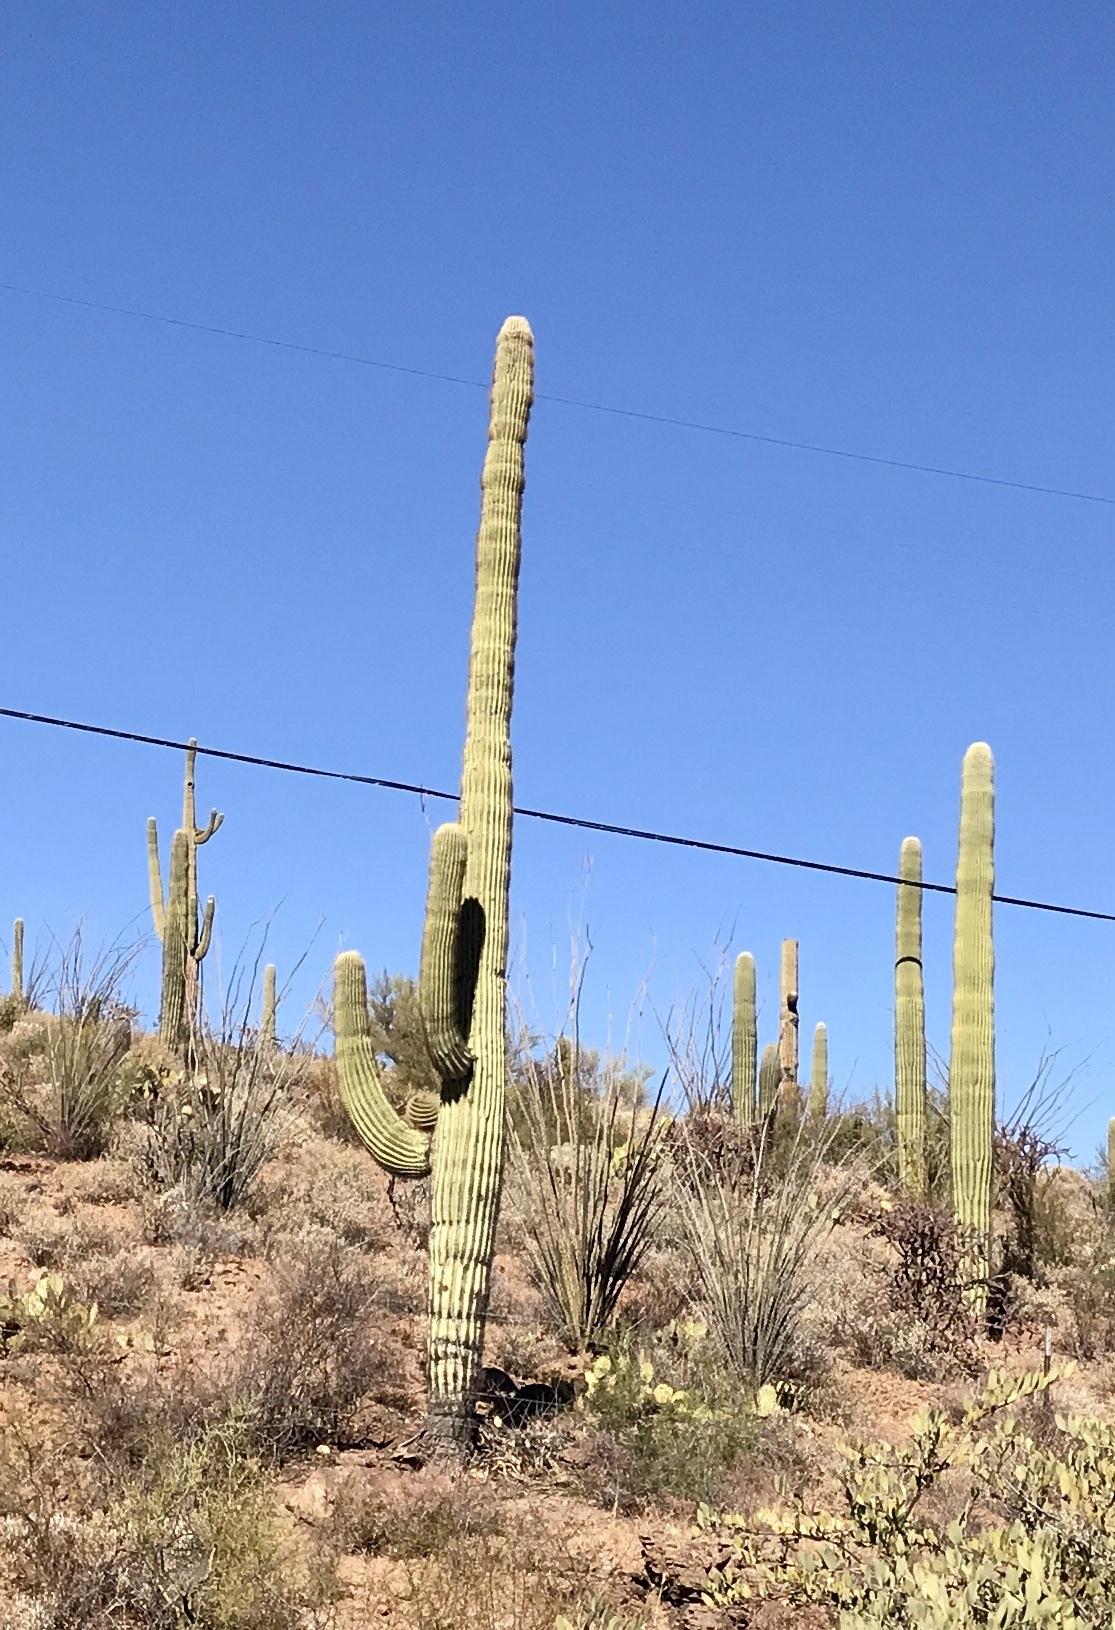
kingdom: Plantae
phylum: Tracheophyta
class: Magnoliopsida
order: Caryophyllales
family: Cactaceae
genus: Carnegiea
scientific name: Carnegiea gigantea
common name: Saguaro
